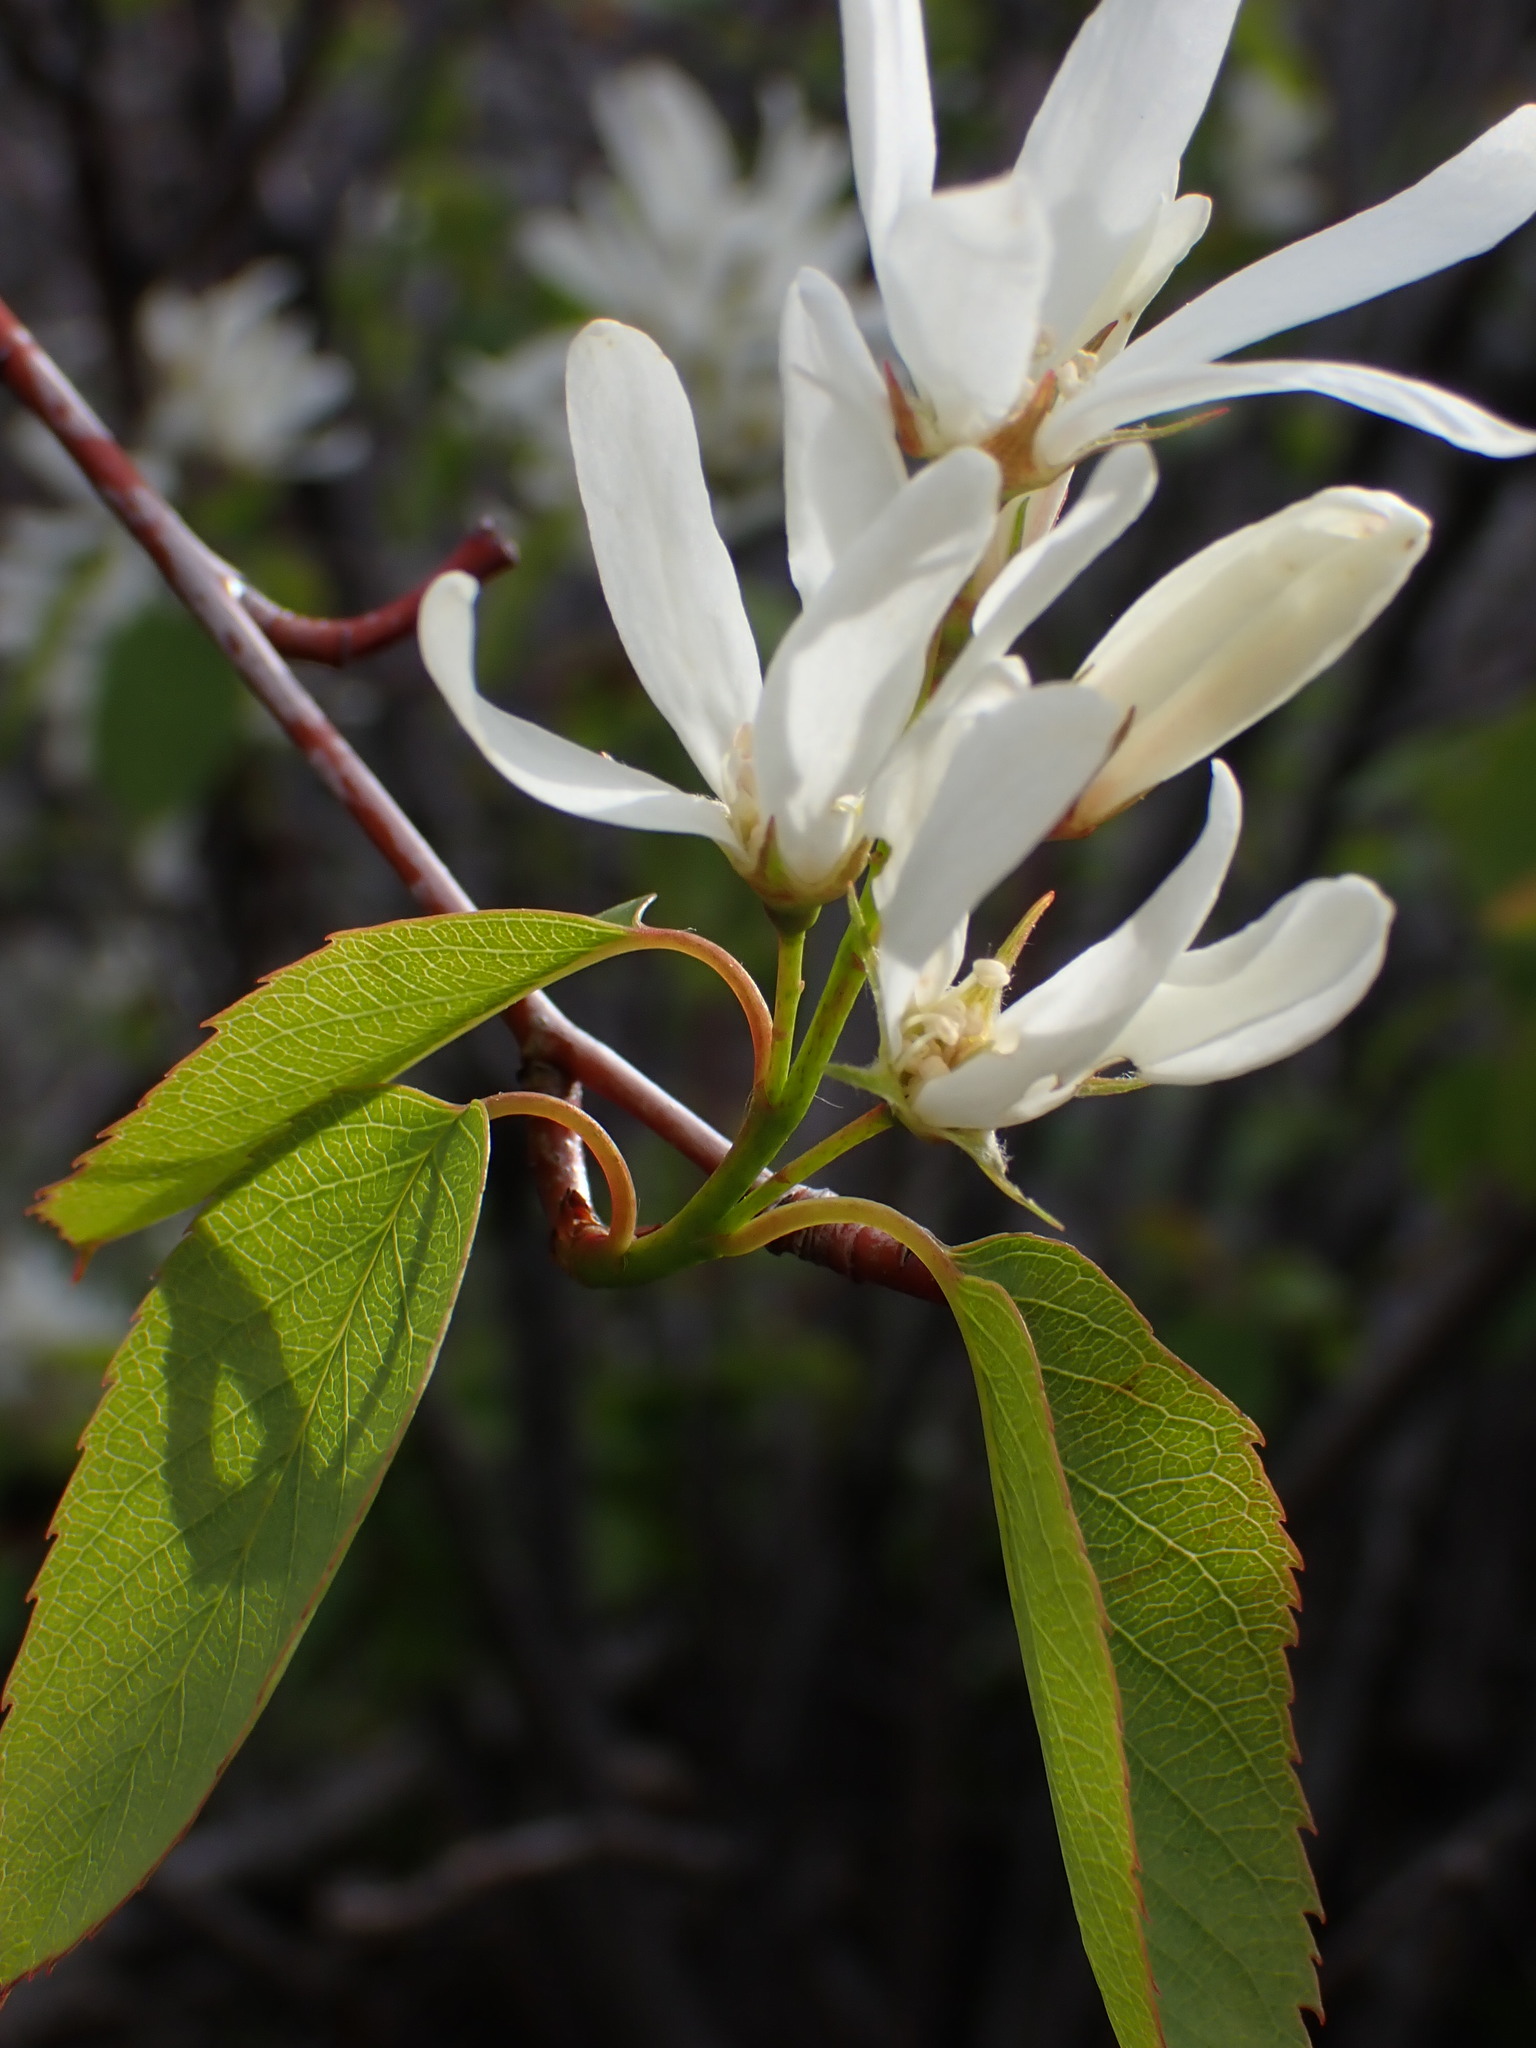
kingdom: Plantae
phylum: Tracheophyta
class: Magnoliopsida
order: Rosales
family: Rosaceae
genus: Amelanchier
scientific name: Amelanchier alnifolia
